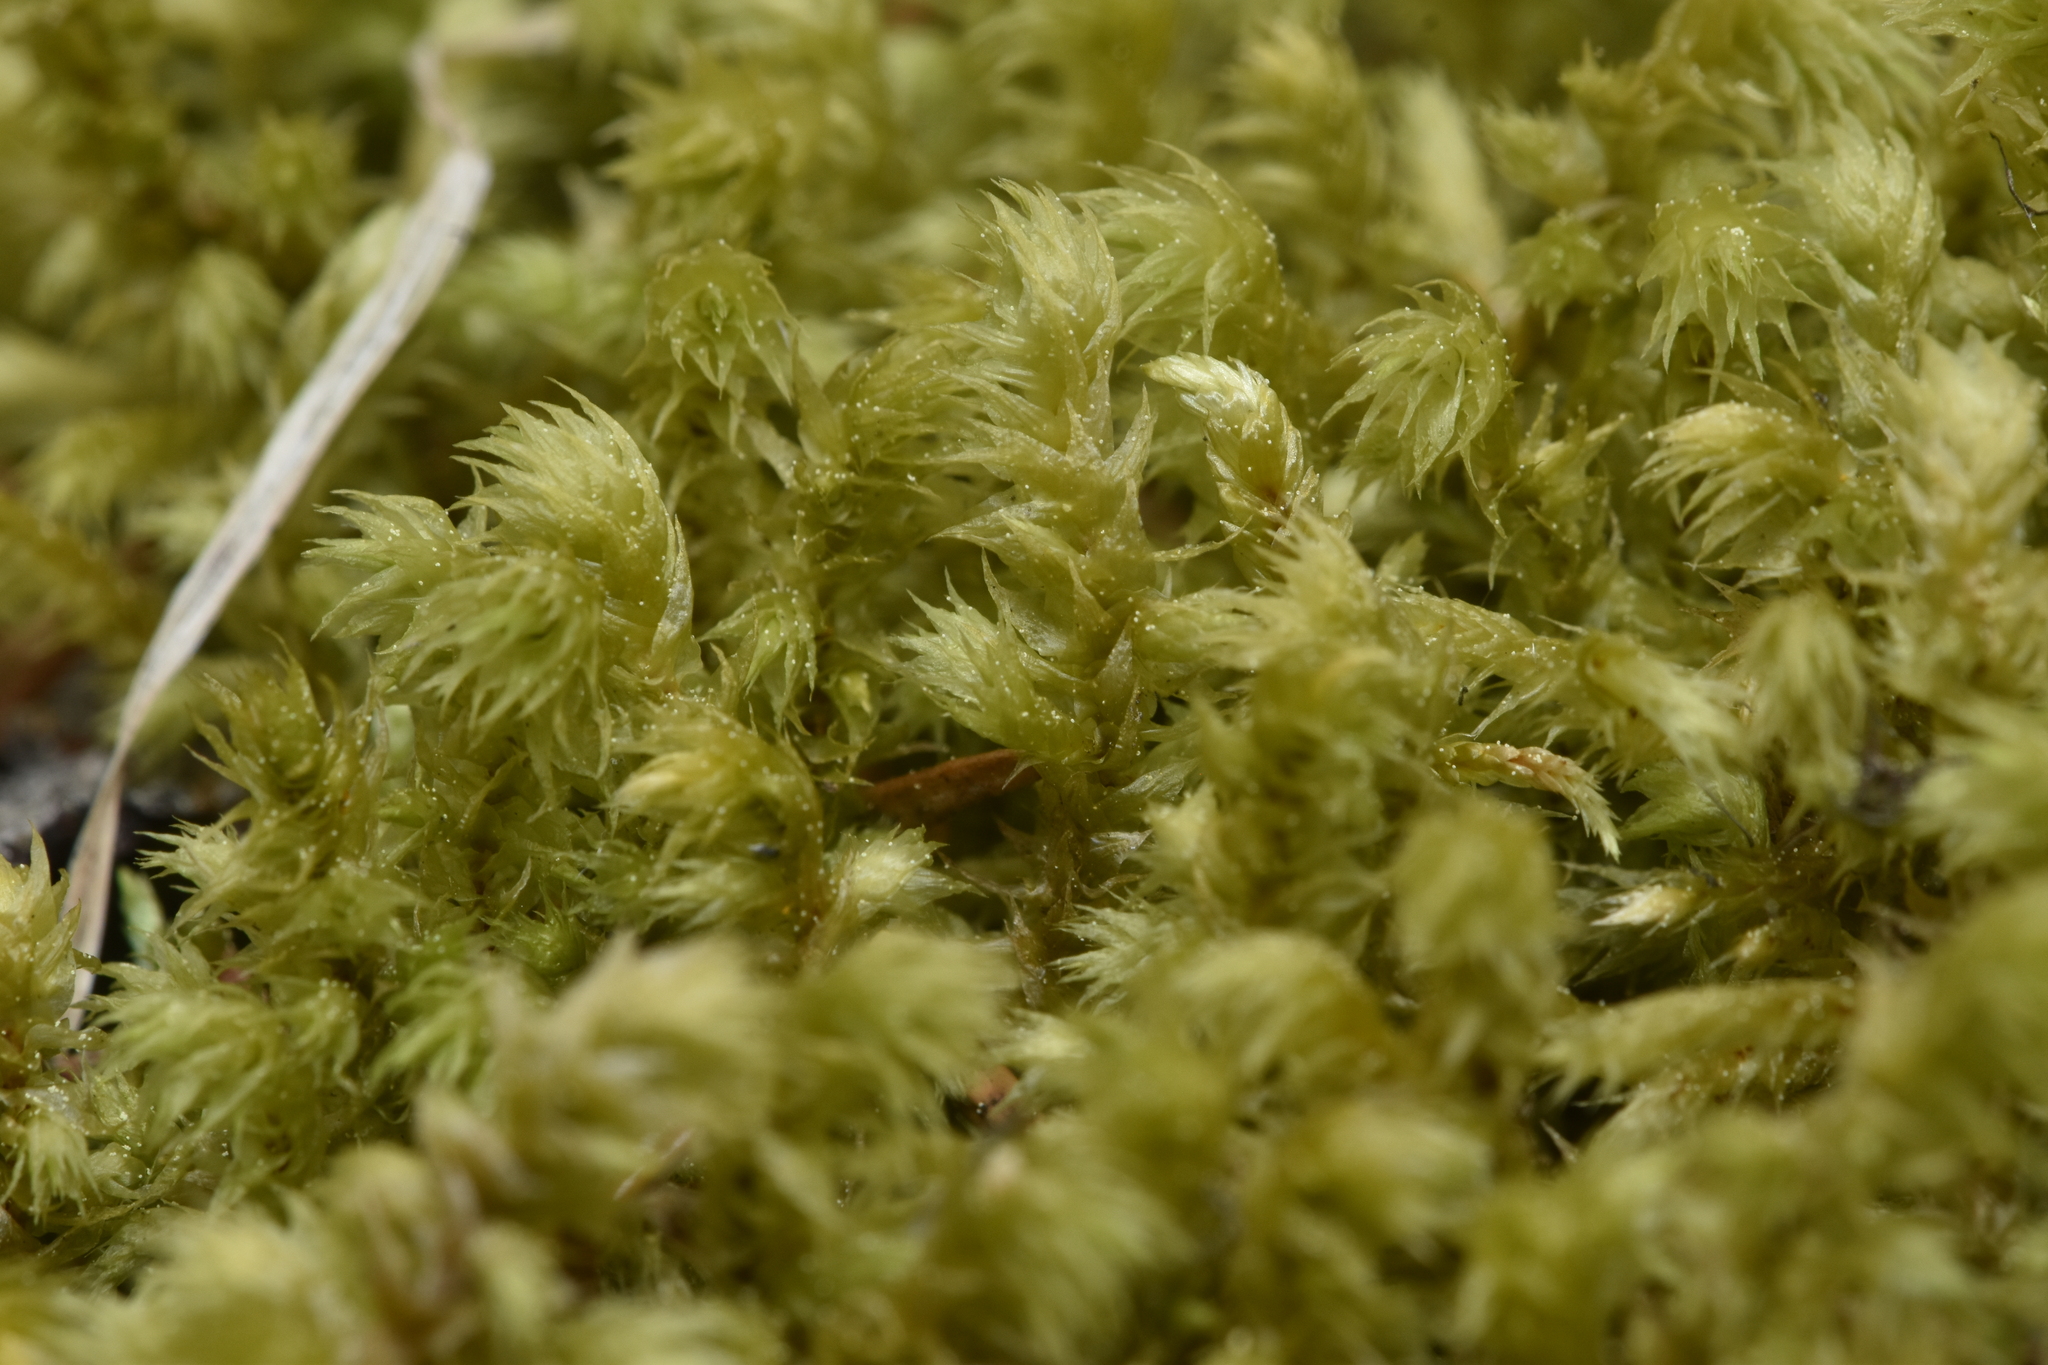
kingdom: Plantae
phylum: Bryophyta
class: Bryopsida
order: Hypnales
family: Hylocomiaceae
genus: Hylocomiadelphus
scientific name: Hylocomiadelphus triquetrus
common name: Rough goose neck moss
